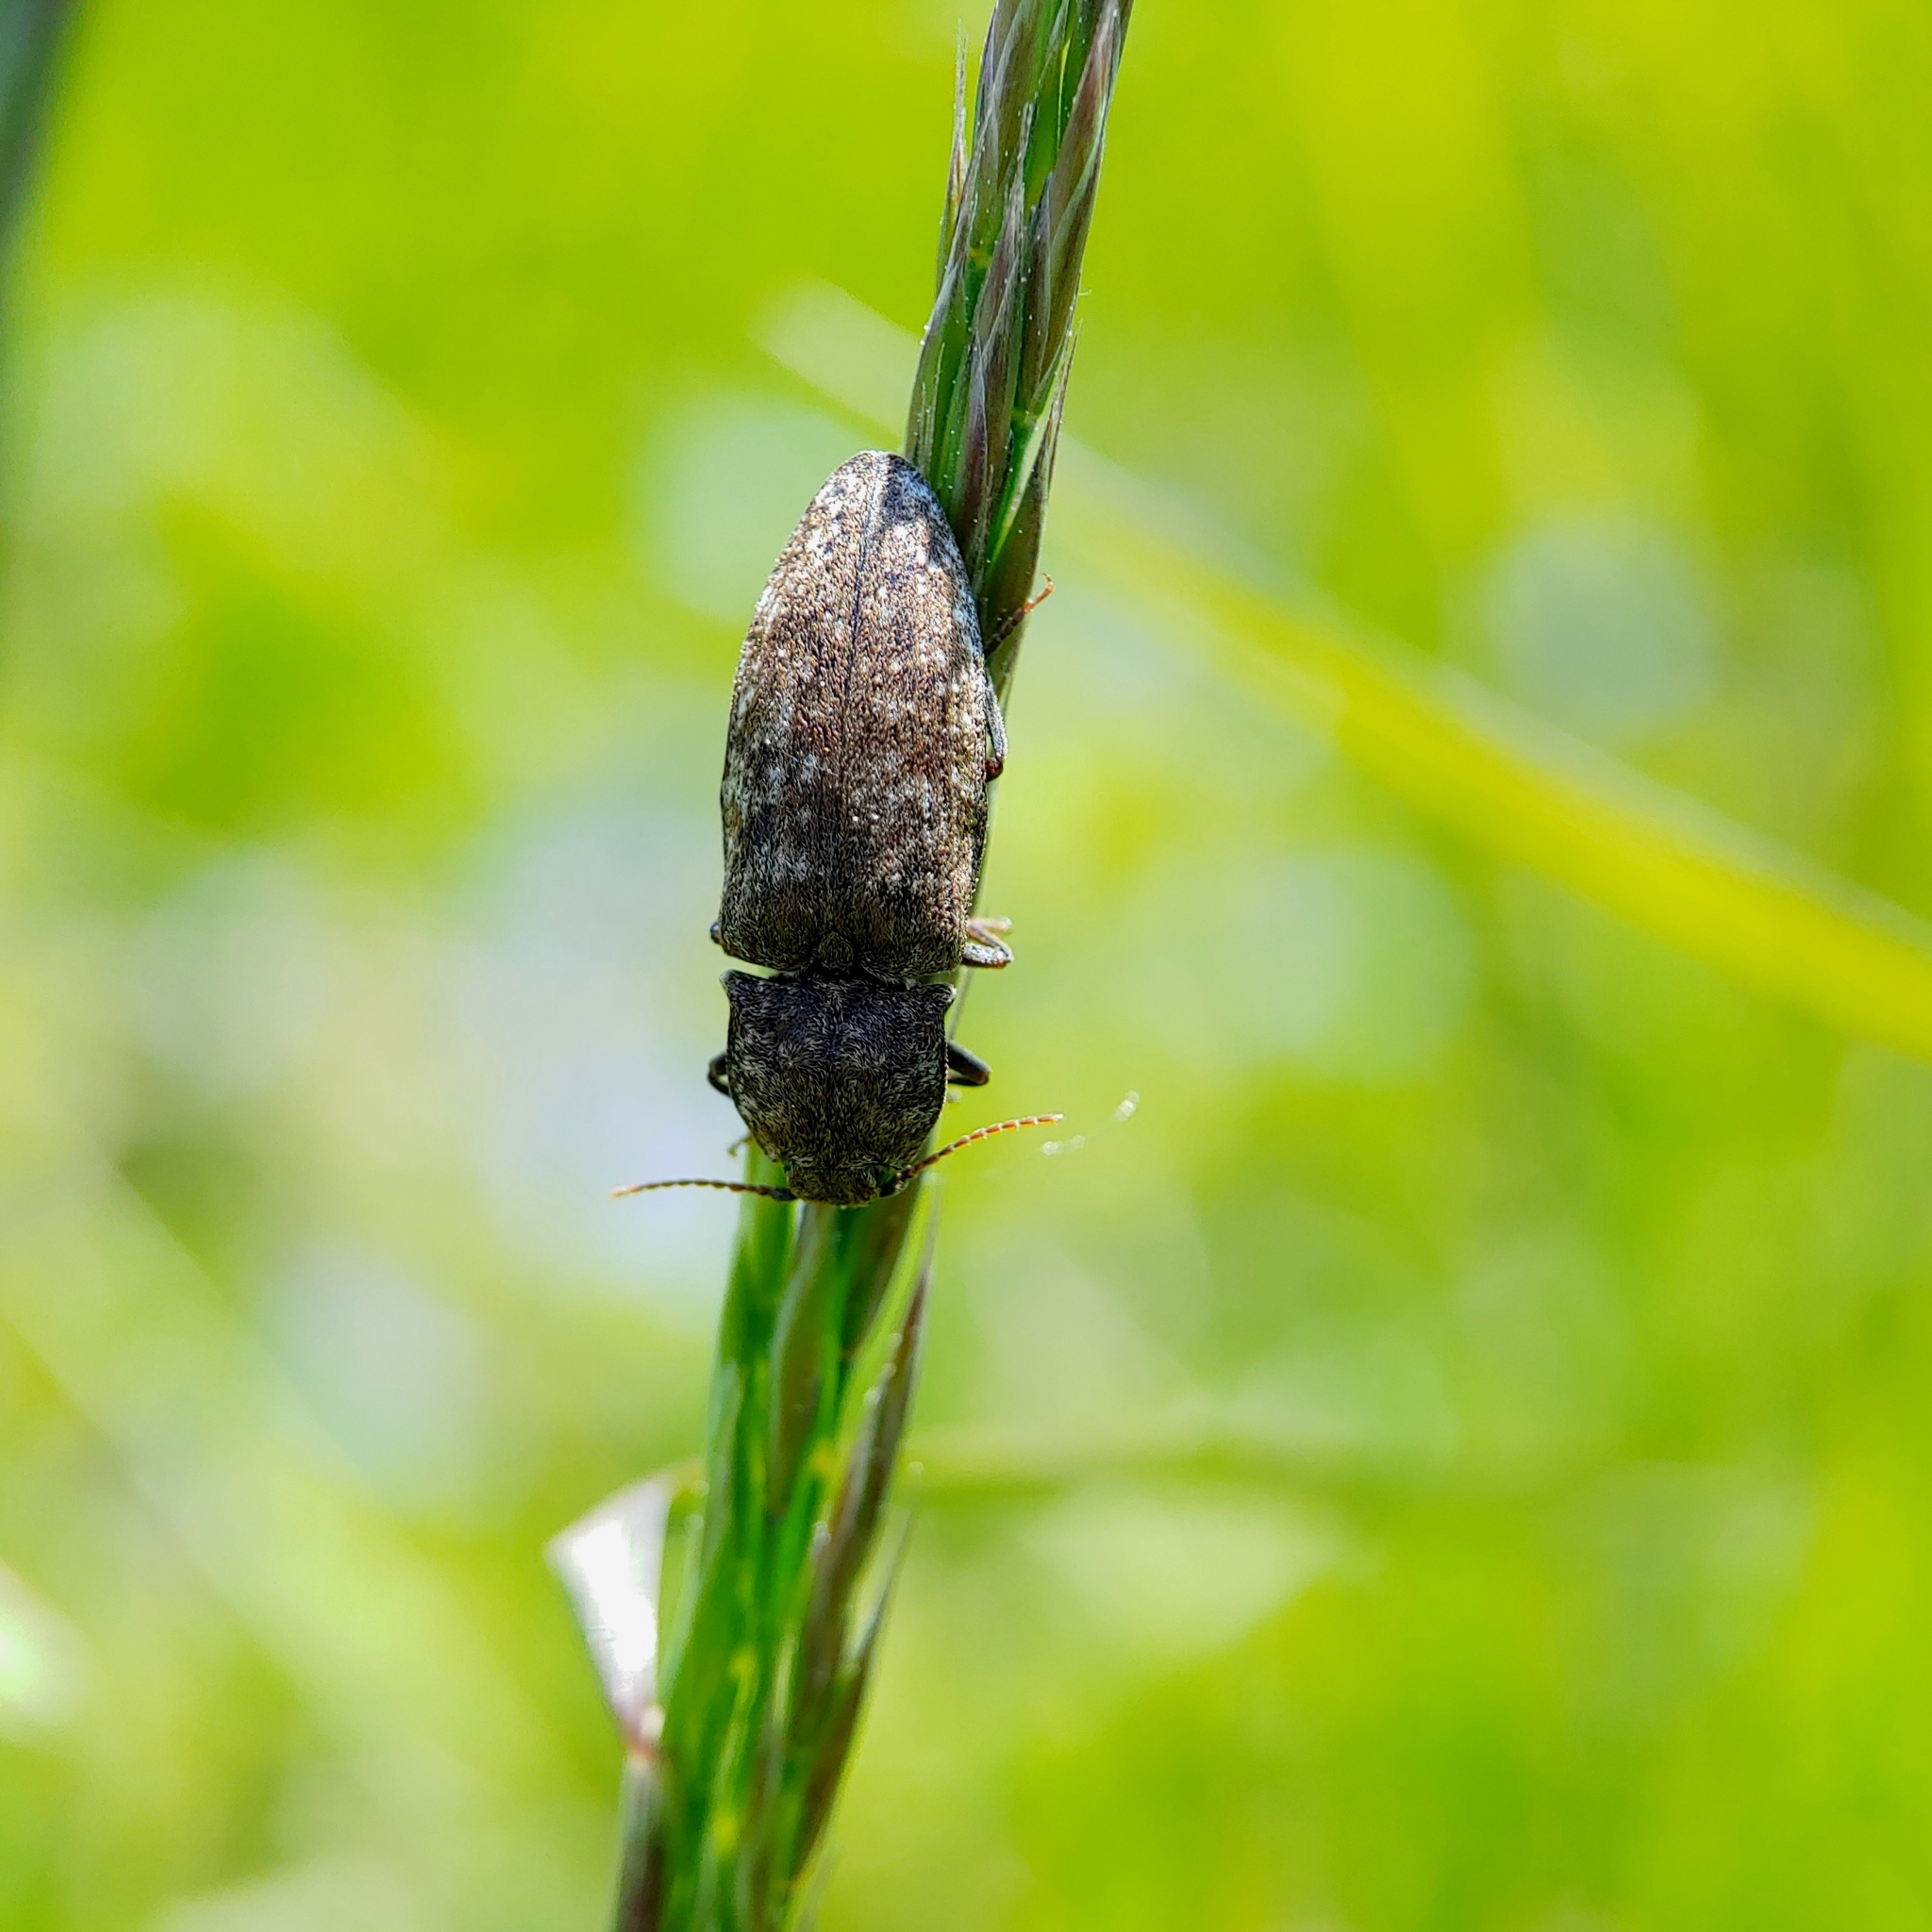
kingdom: Animalia
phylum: Arthropoda
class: Insecta
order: Coleoptera
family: Elateridae
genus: Agrypnus
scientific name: Agrypnus murinus
